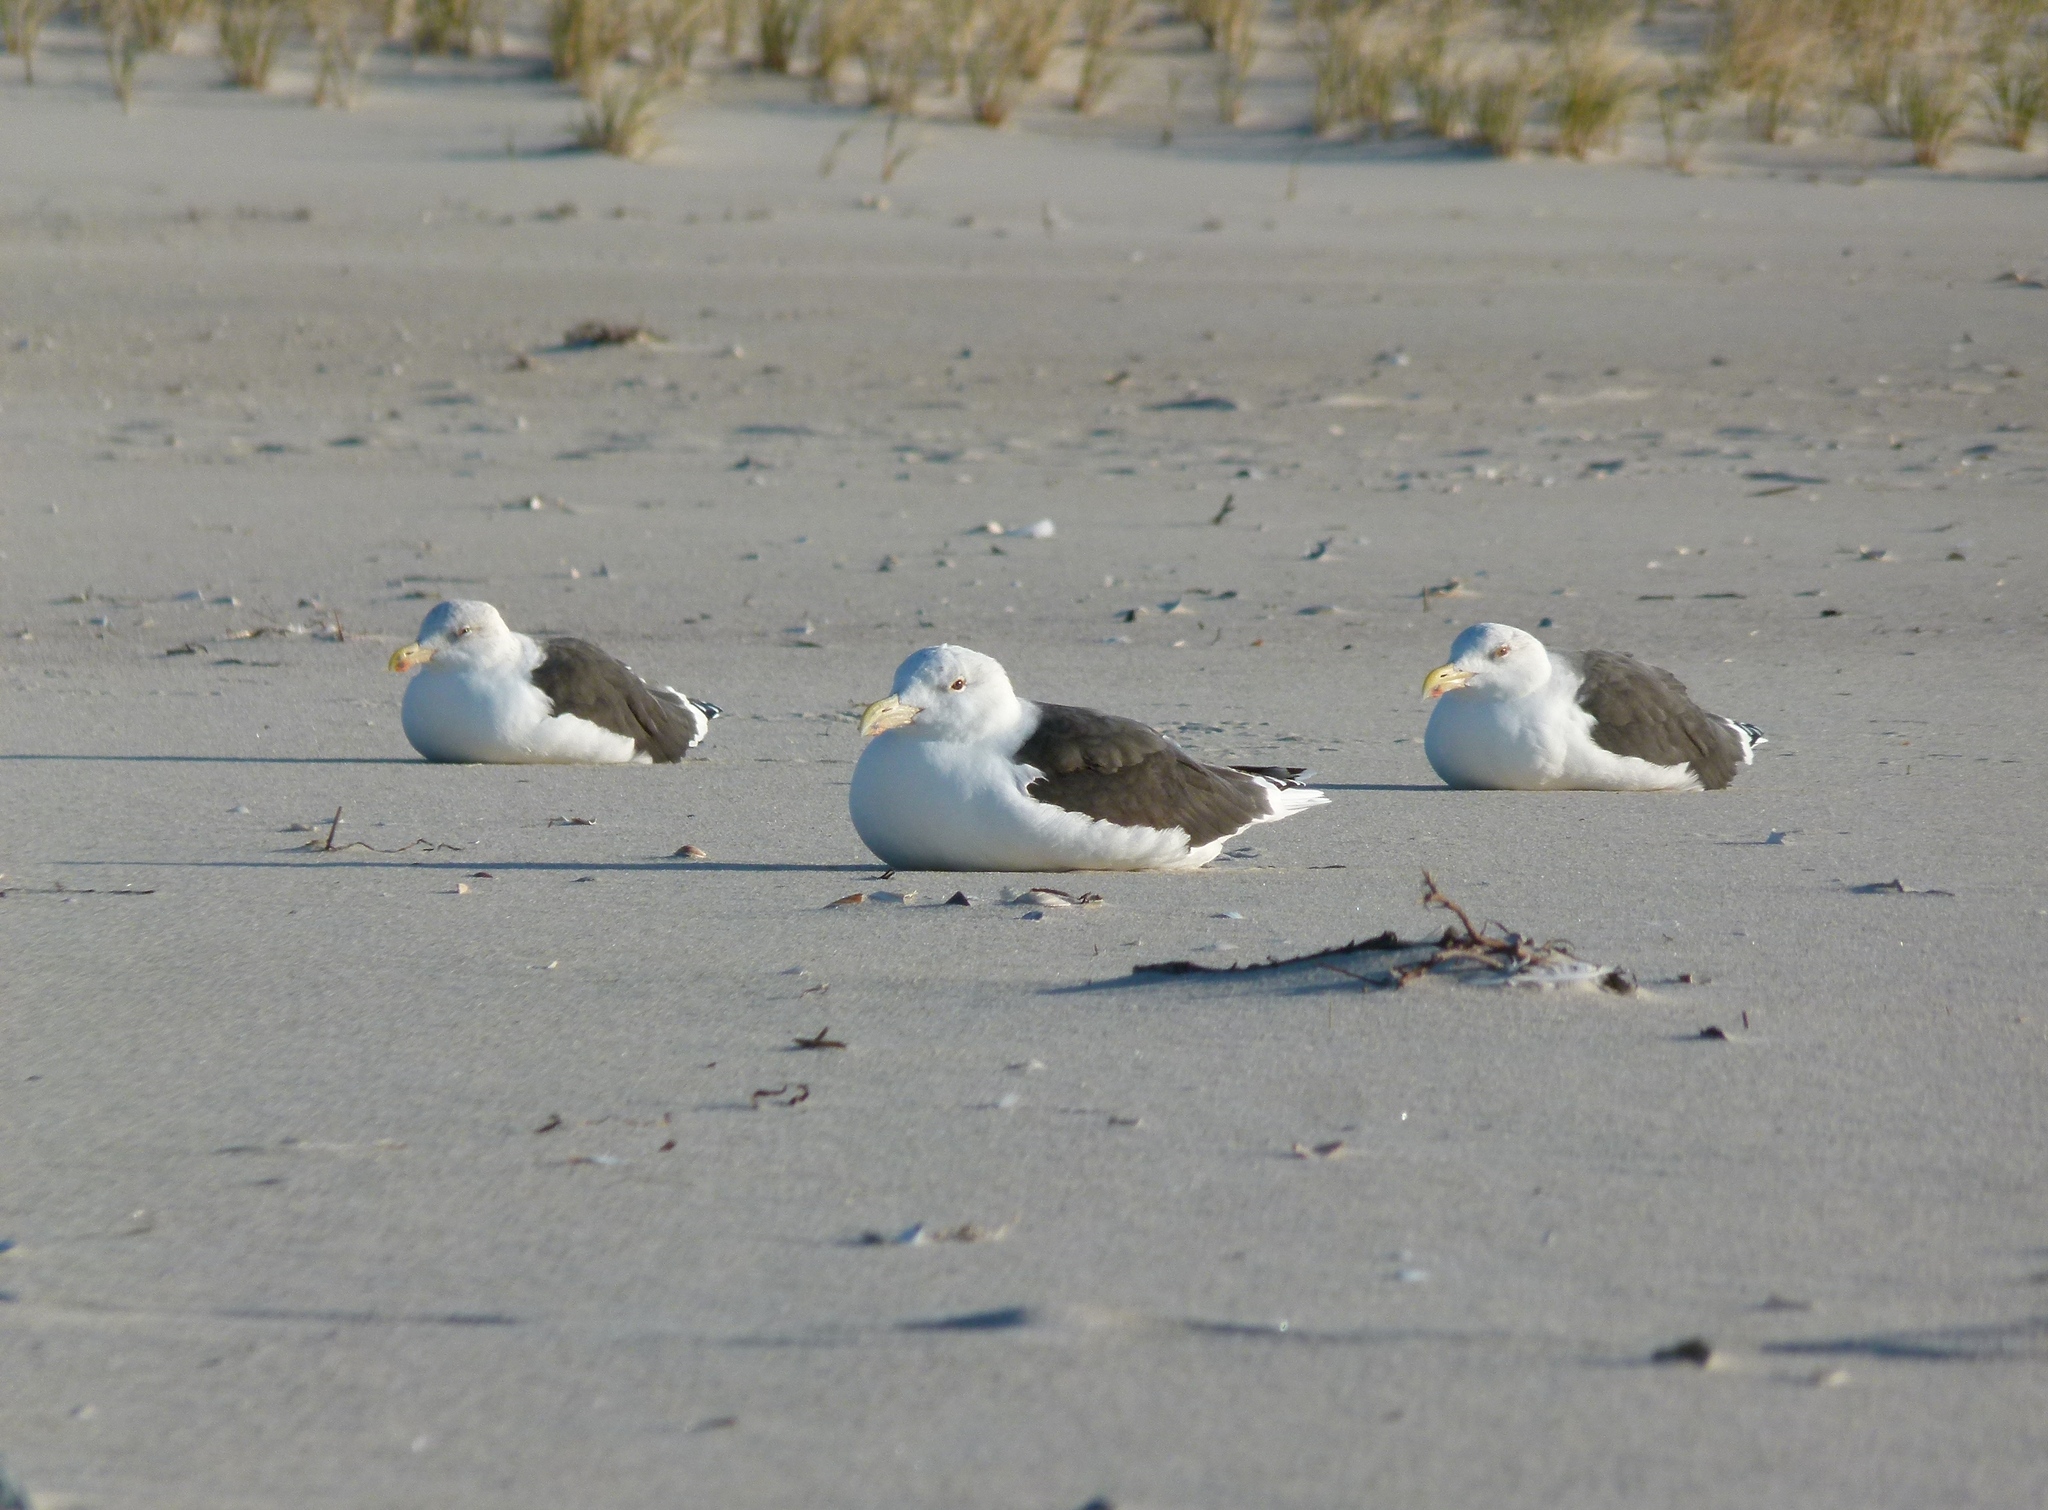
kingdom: Animalia
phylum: Chordata
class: Aves
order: Charadriiformes
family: Laridae
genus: Larus
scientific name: Larus marinus
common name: Great black-backed gull
